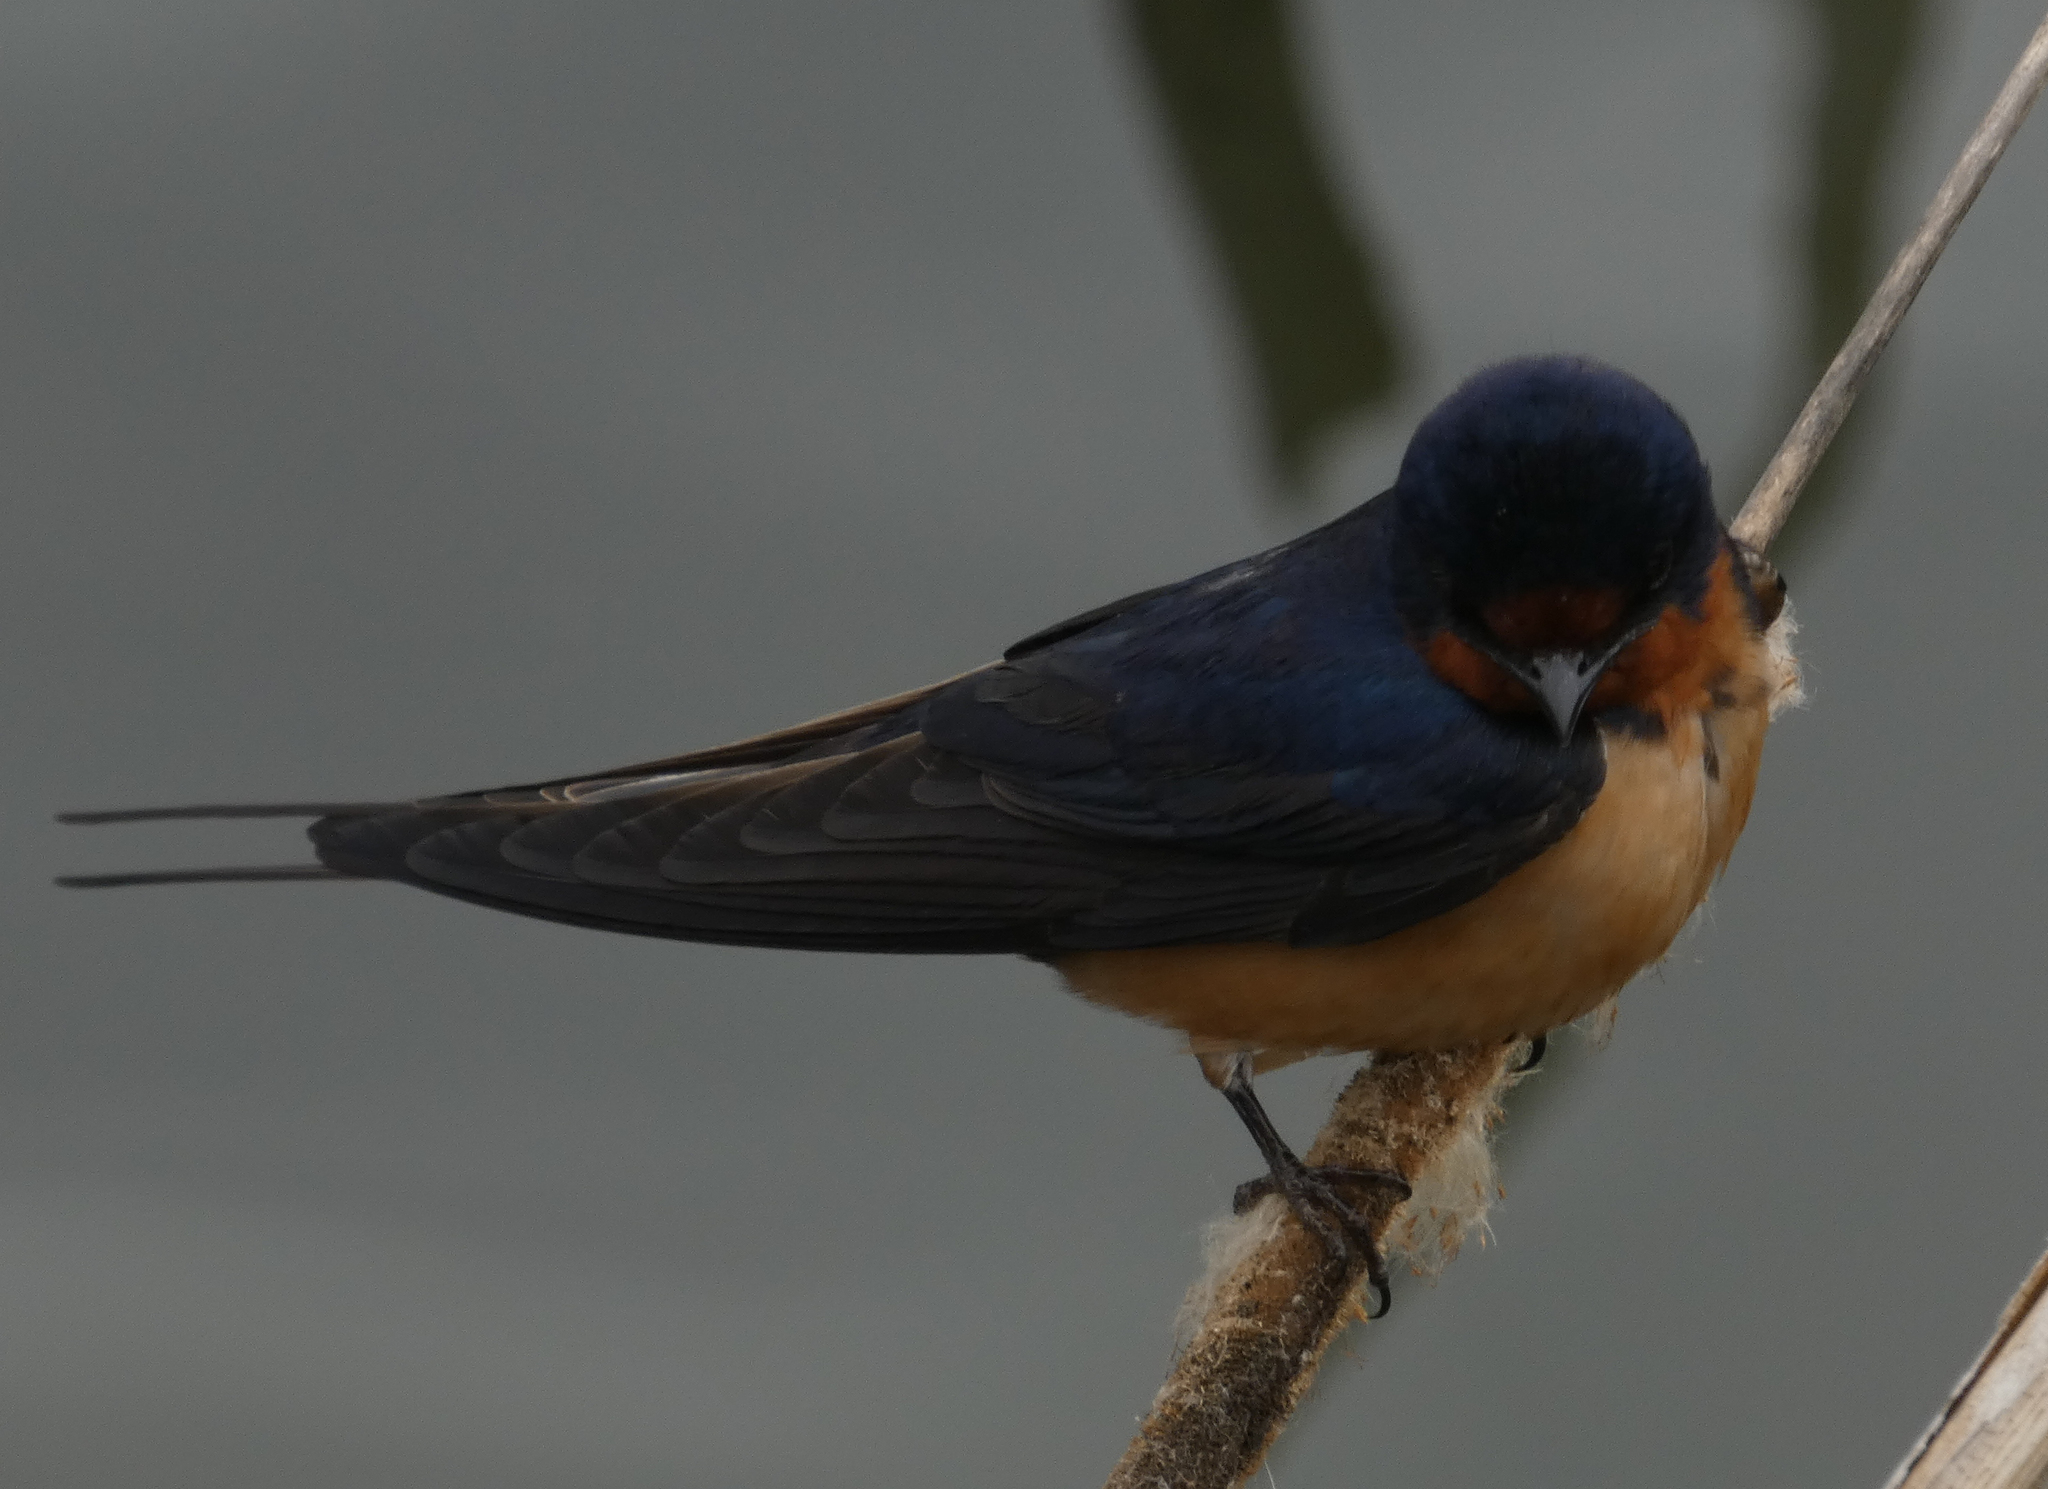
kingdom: Animalia
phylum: Chordata
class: Aves
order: Passeriformes
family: Hirundinidae
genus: Hirundo
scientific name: Hirundo rustica
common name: Barn swallow
